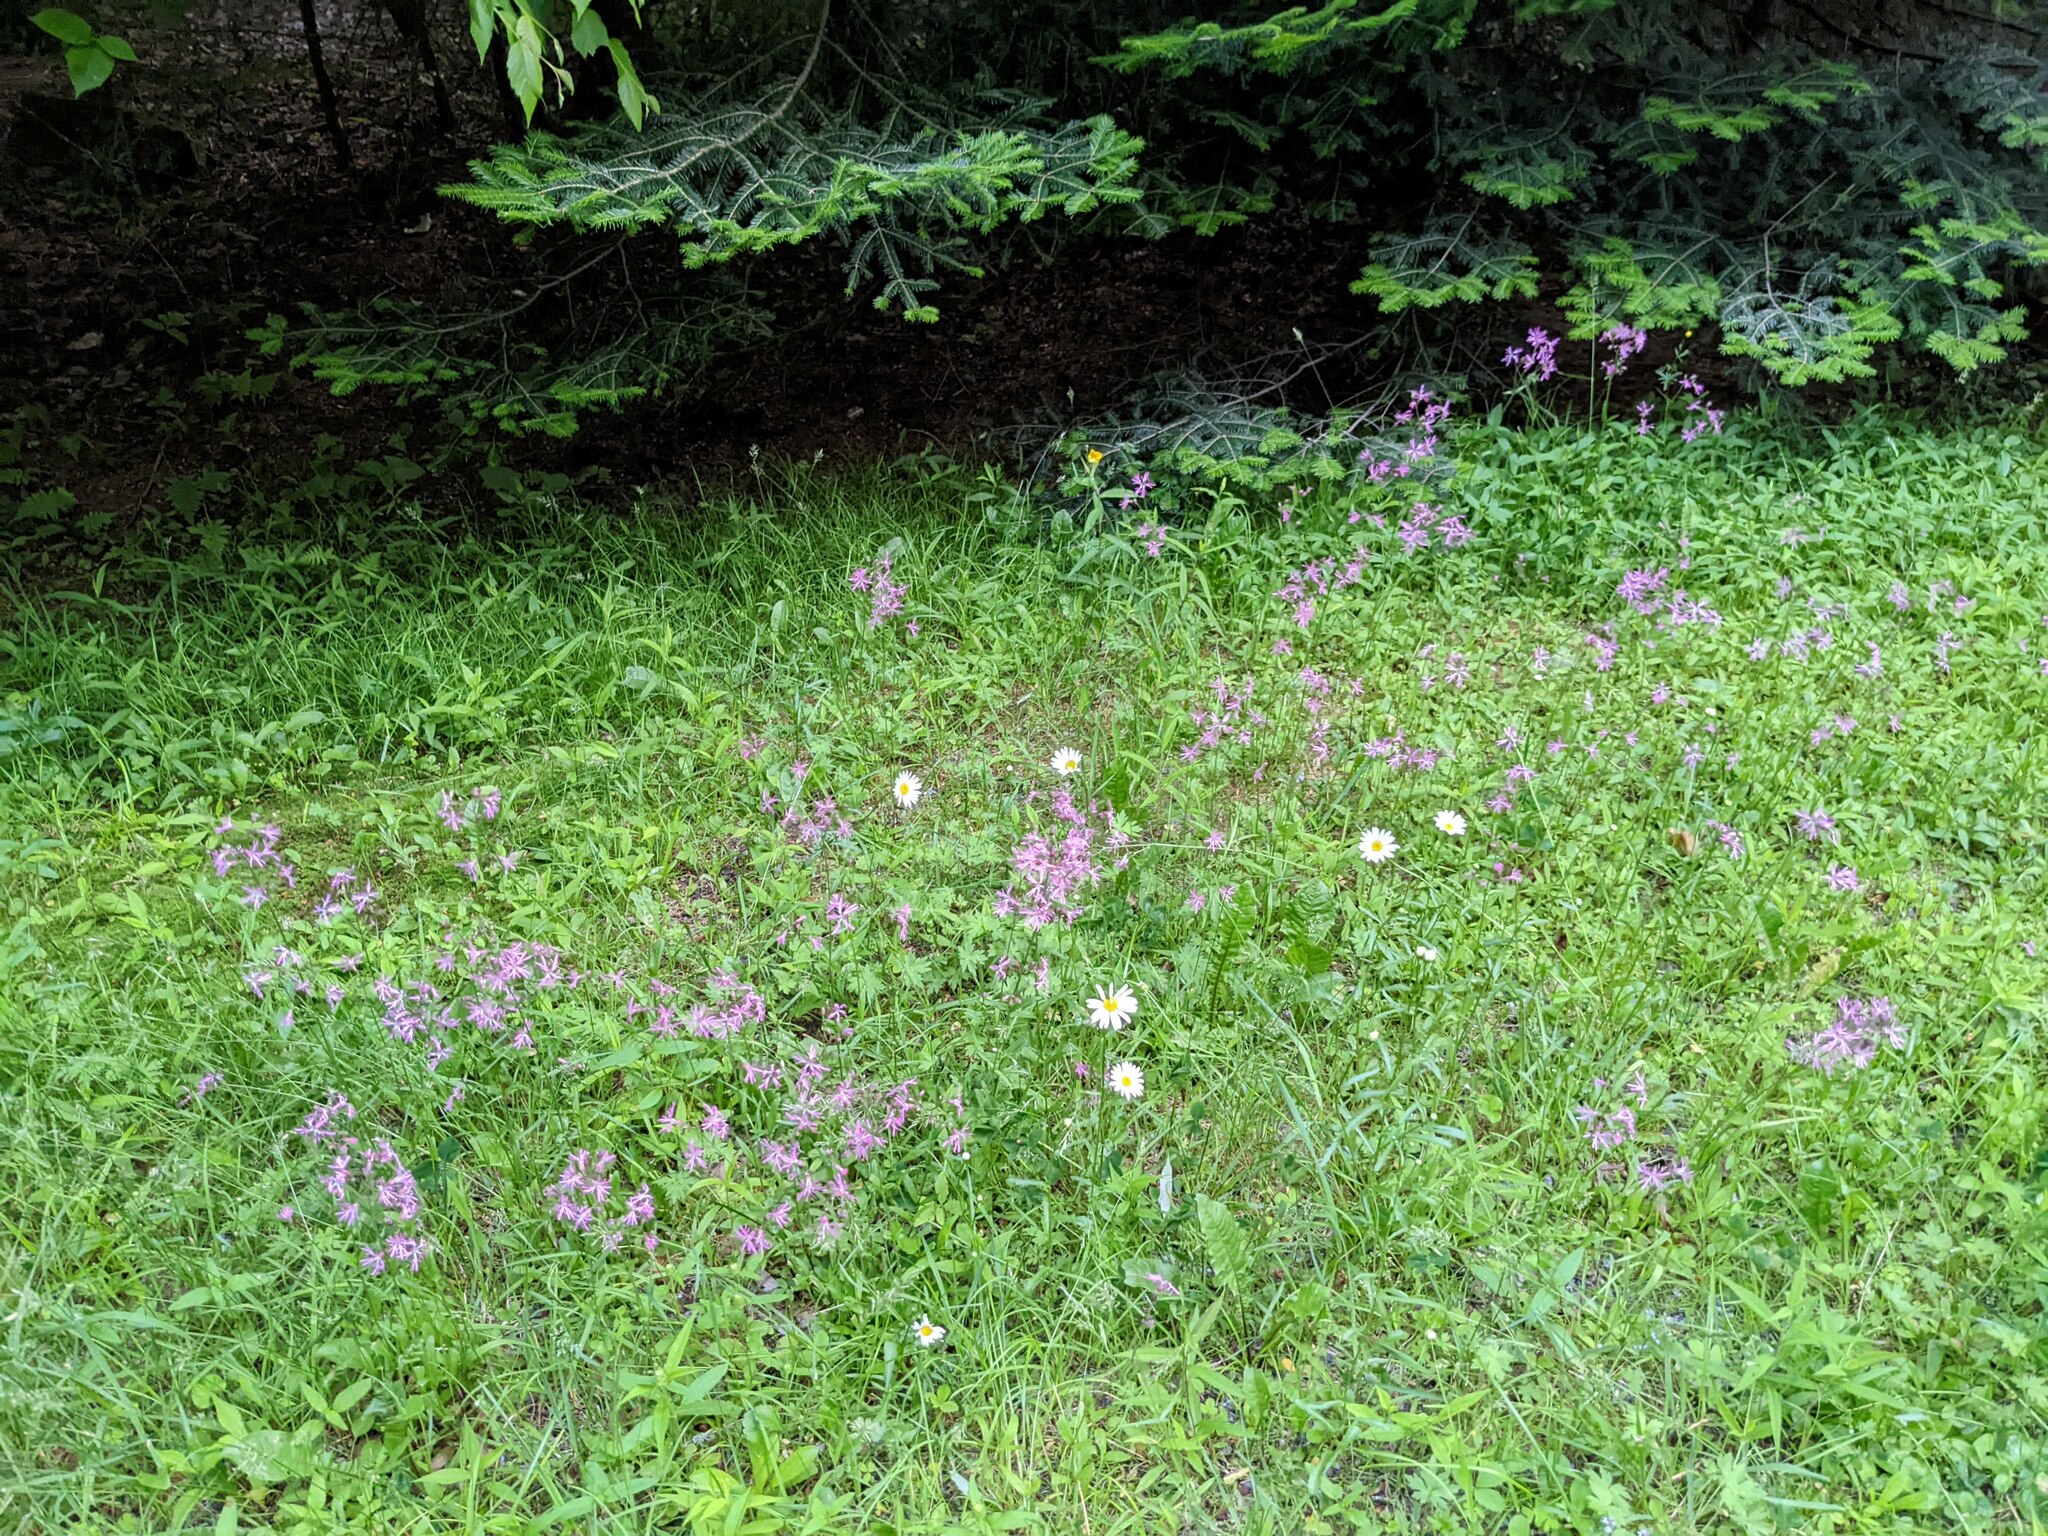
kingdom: Plantae
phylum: Tracheophyta
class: Magnoliopsida
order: Caryophyllales
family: Caryophyllaceae
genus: Silene
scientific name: Silene flos-cuculi
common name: Ragged-robin
